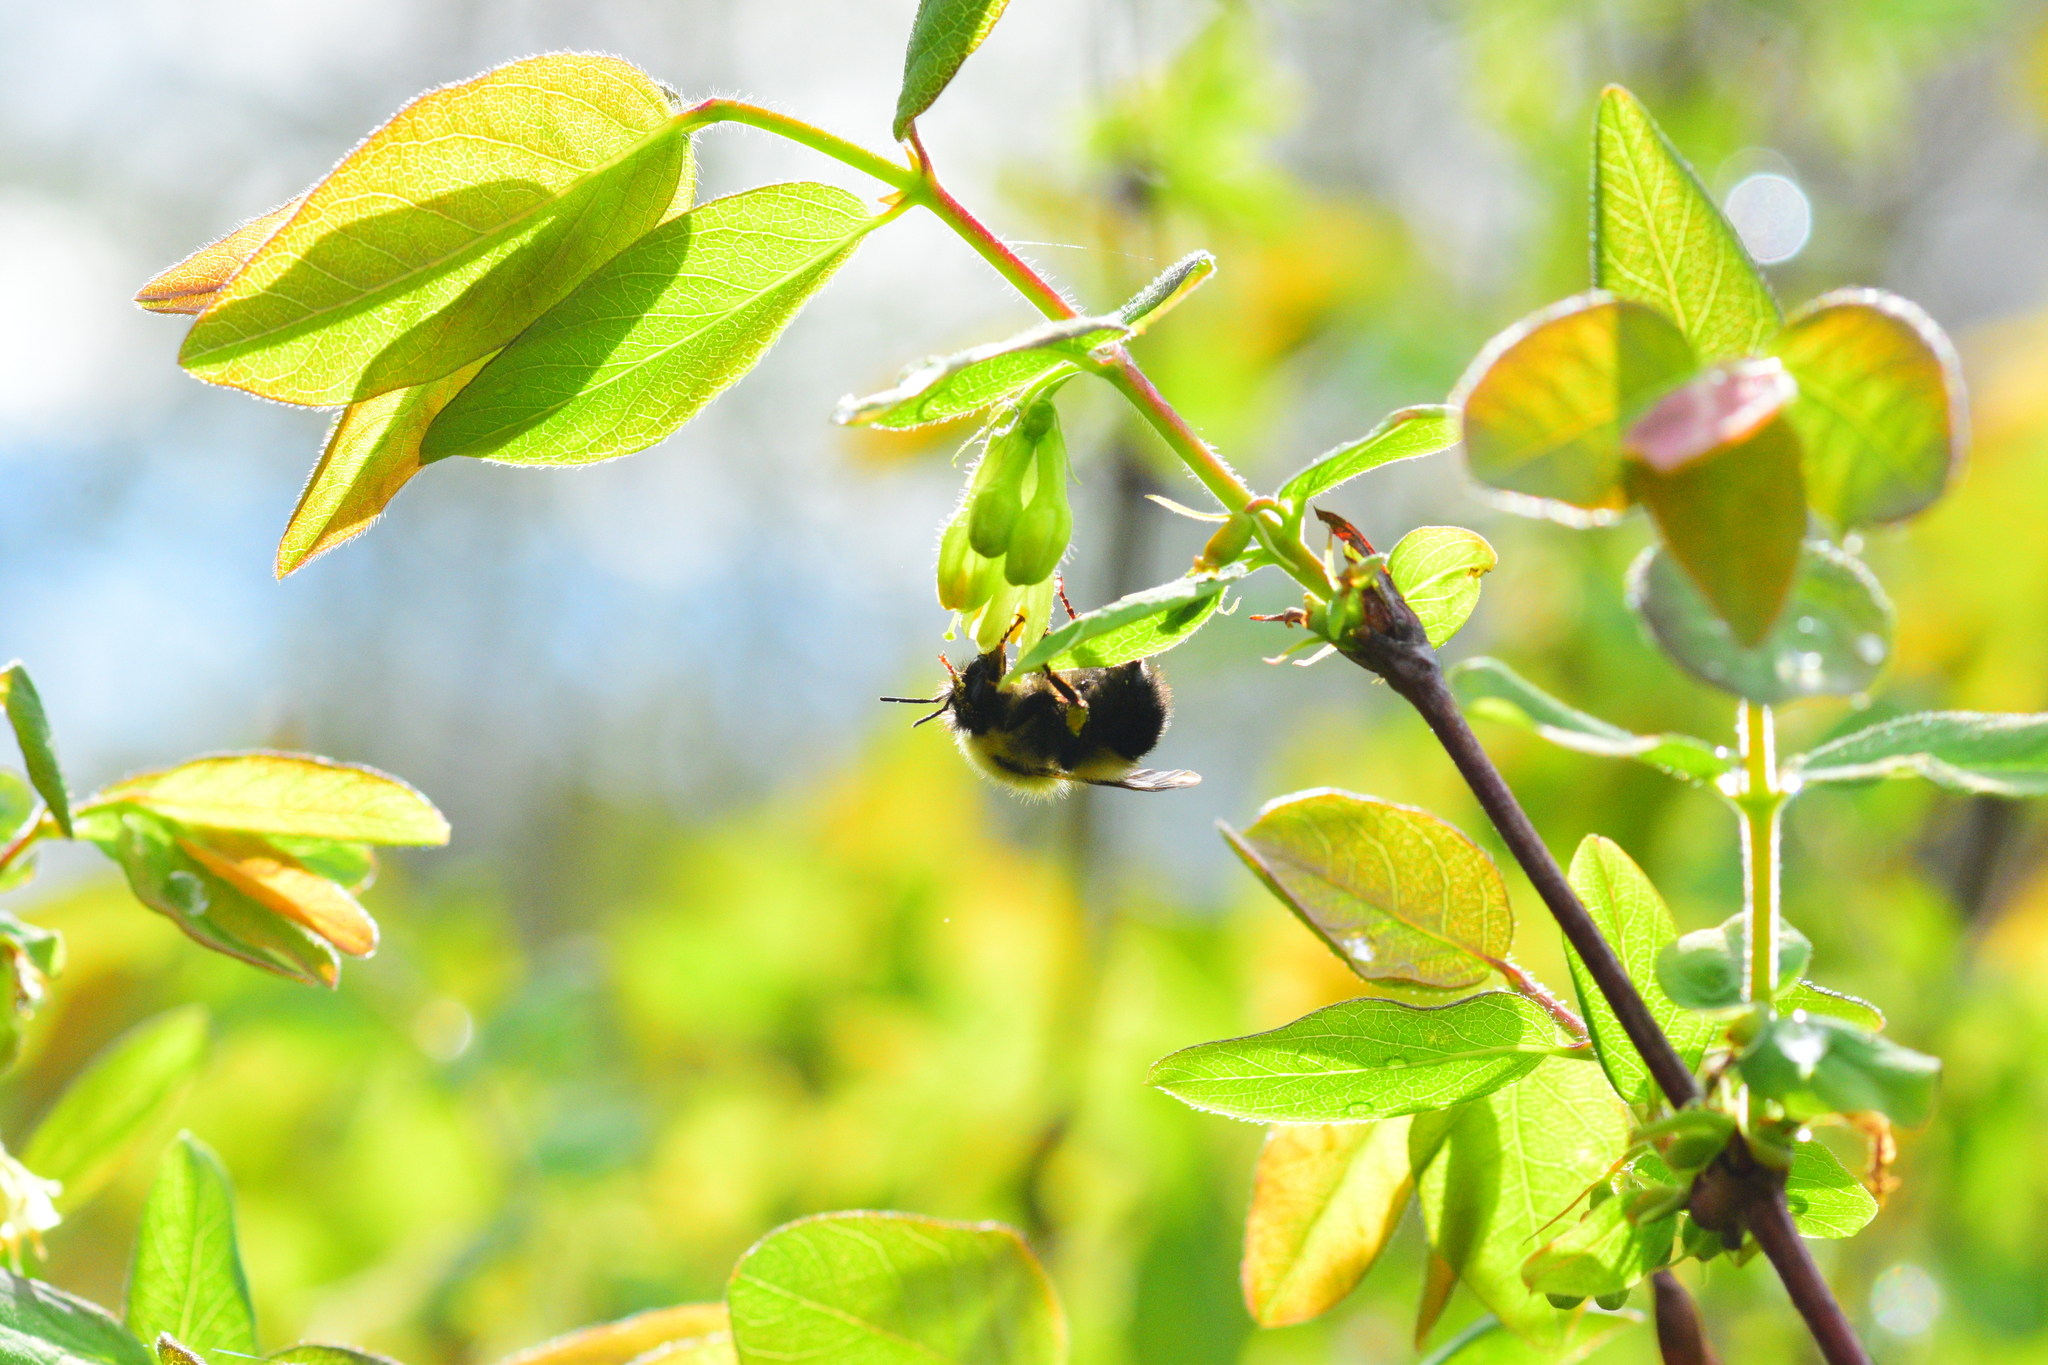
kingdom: Animalia
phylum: Arthropoda
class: Insecta
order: Hymenoptera
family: Apidae
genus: Pyrobombus
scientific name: Pyrobombus
